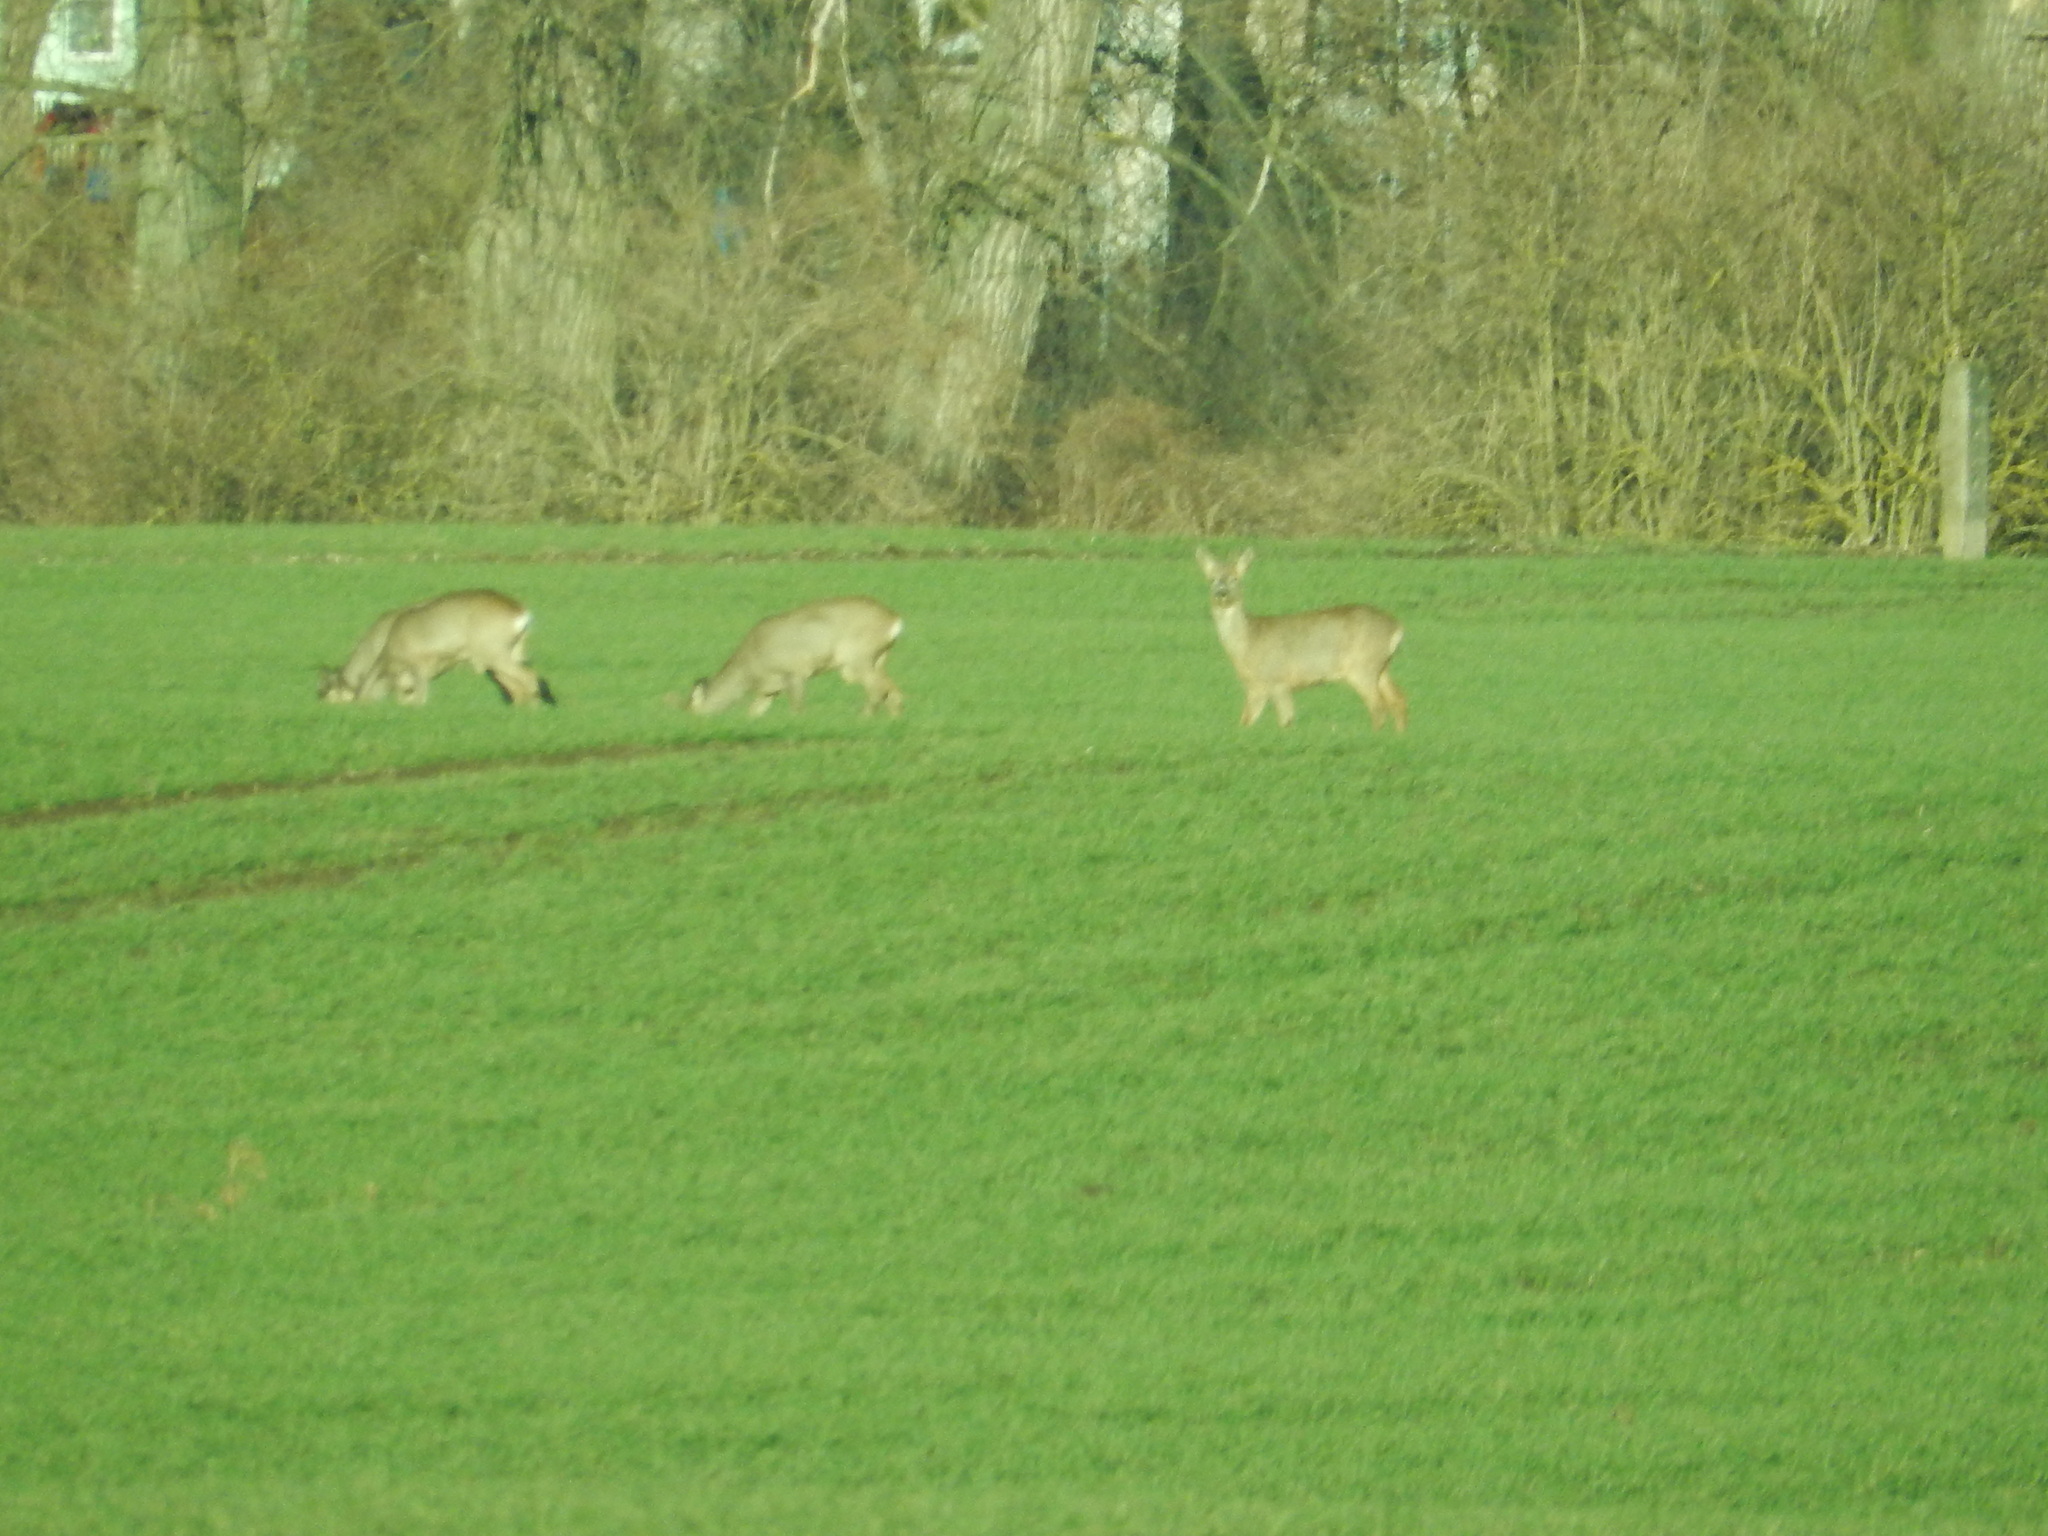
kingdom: Animalia
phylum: Chordata
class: Mammalia
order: Artiodactyla
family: Cervidae
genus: Capreolus
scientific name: Capreolus capreolus
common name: Western roe deer
